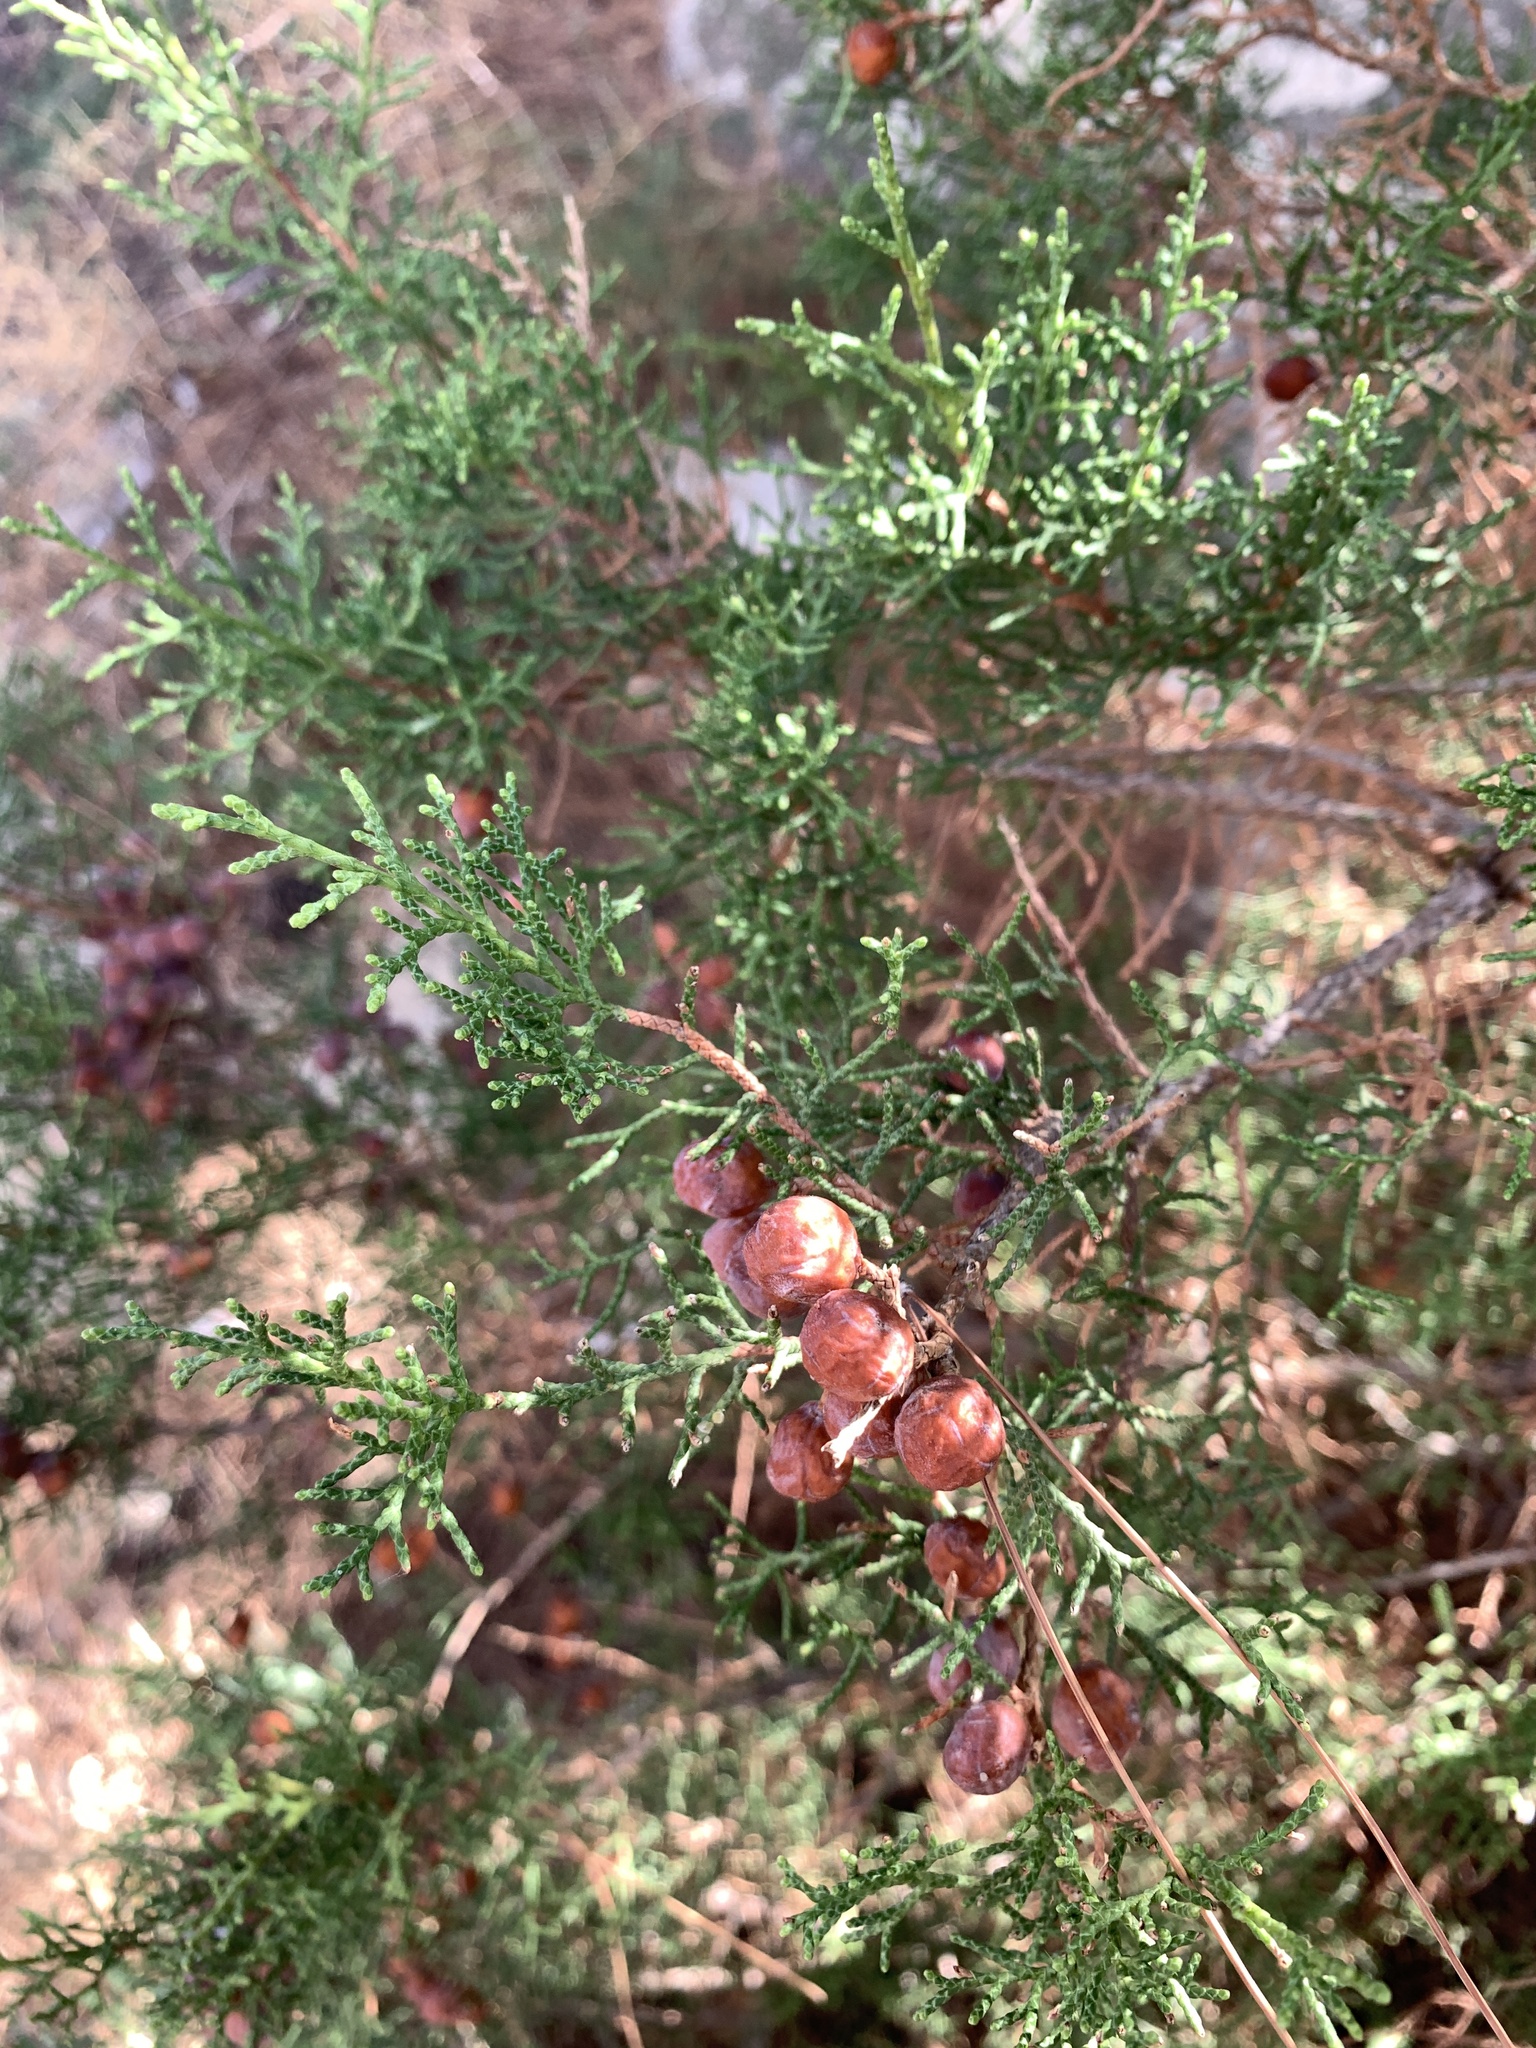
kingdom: Plantae
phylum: Tracheophyta
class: Pinopsida
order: Pinales
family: Cupressaceae
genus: Juniperus
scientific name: Juniperus phoenicea
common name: Phoenician juniper
